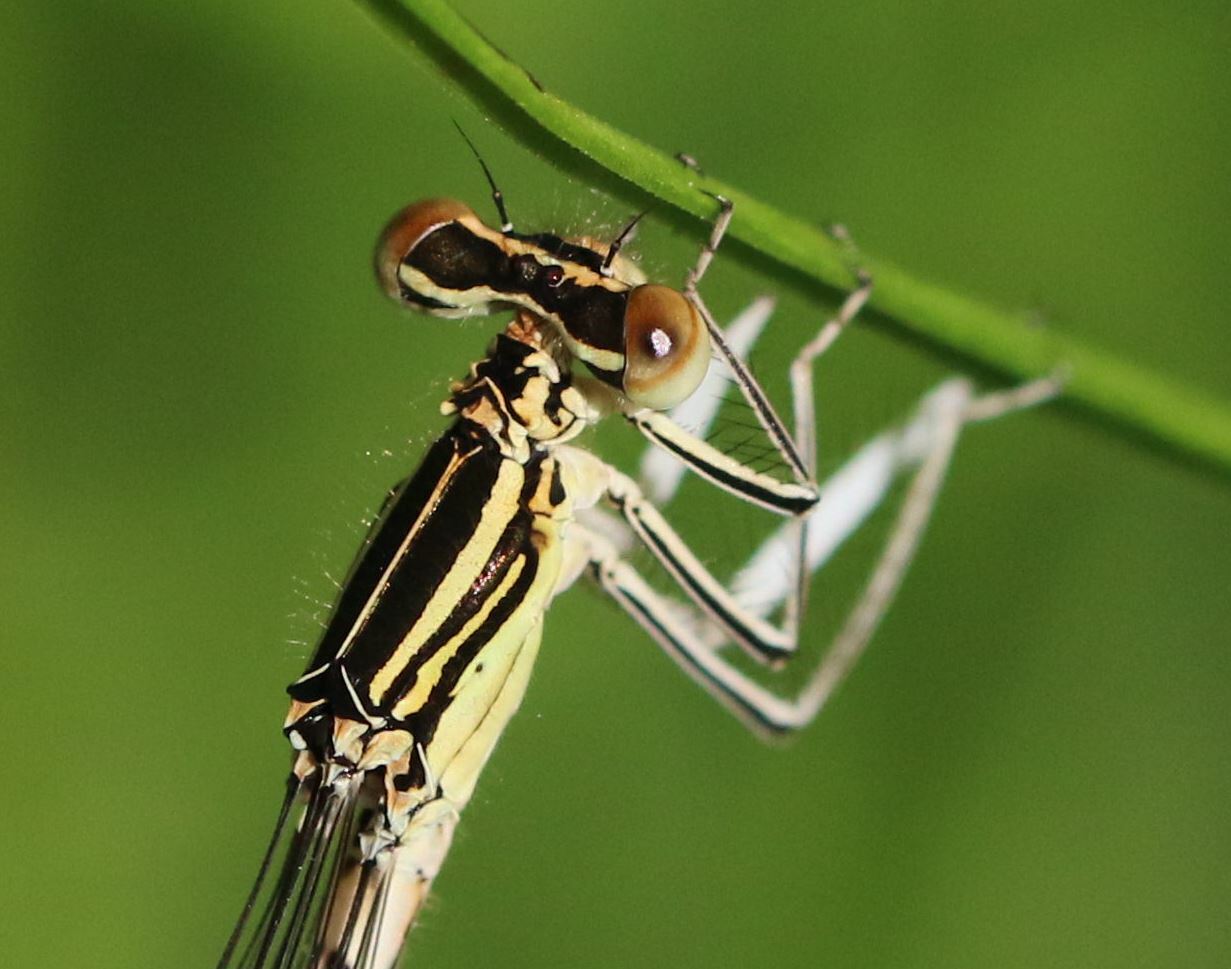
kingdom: Animalia
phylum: Arthropoda
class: Insecta
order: Odonata
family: Platycnemididae
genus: Platycnemis
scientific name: Platycnemis pennipes
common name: White-legged damselfly
